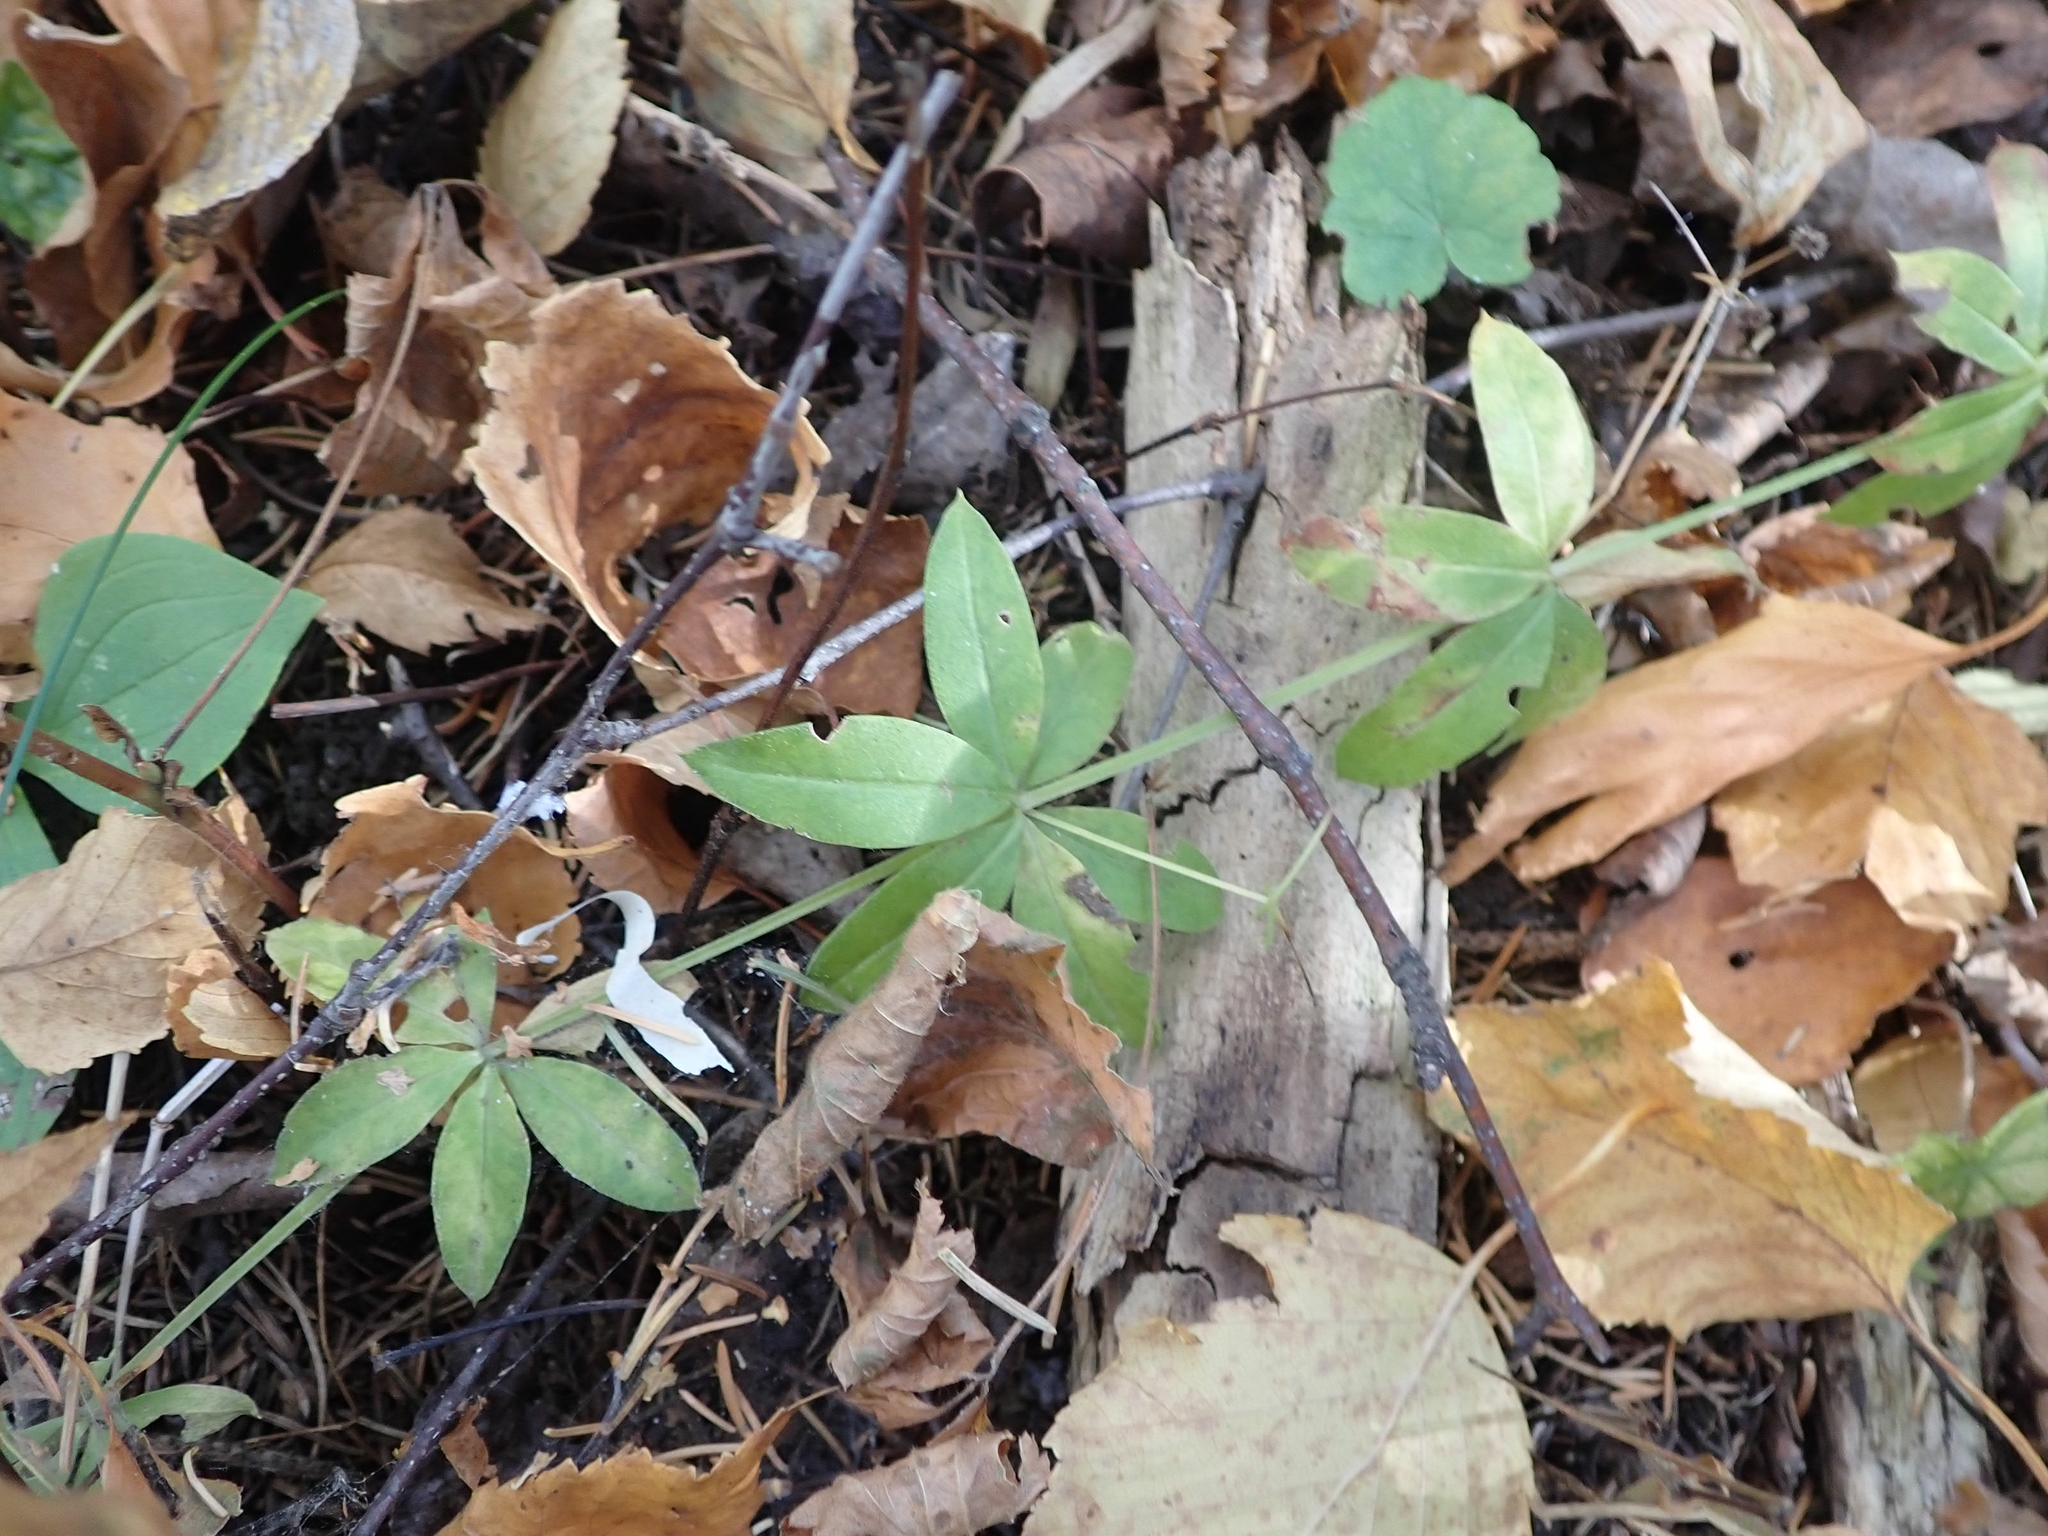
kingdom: Plantae
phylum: Tracheophyta
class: Magnoliopsida
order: Gentianales
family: Rubiaceae
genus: Galium
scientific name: Galium triflorum
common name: Fragrant bedstraw
